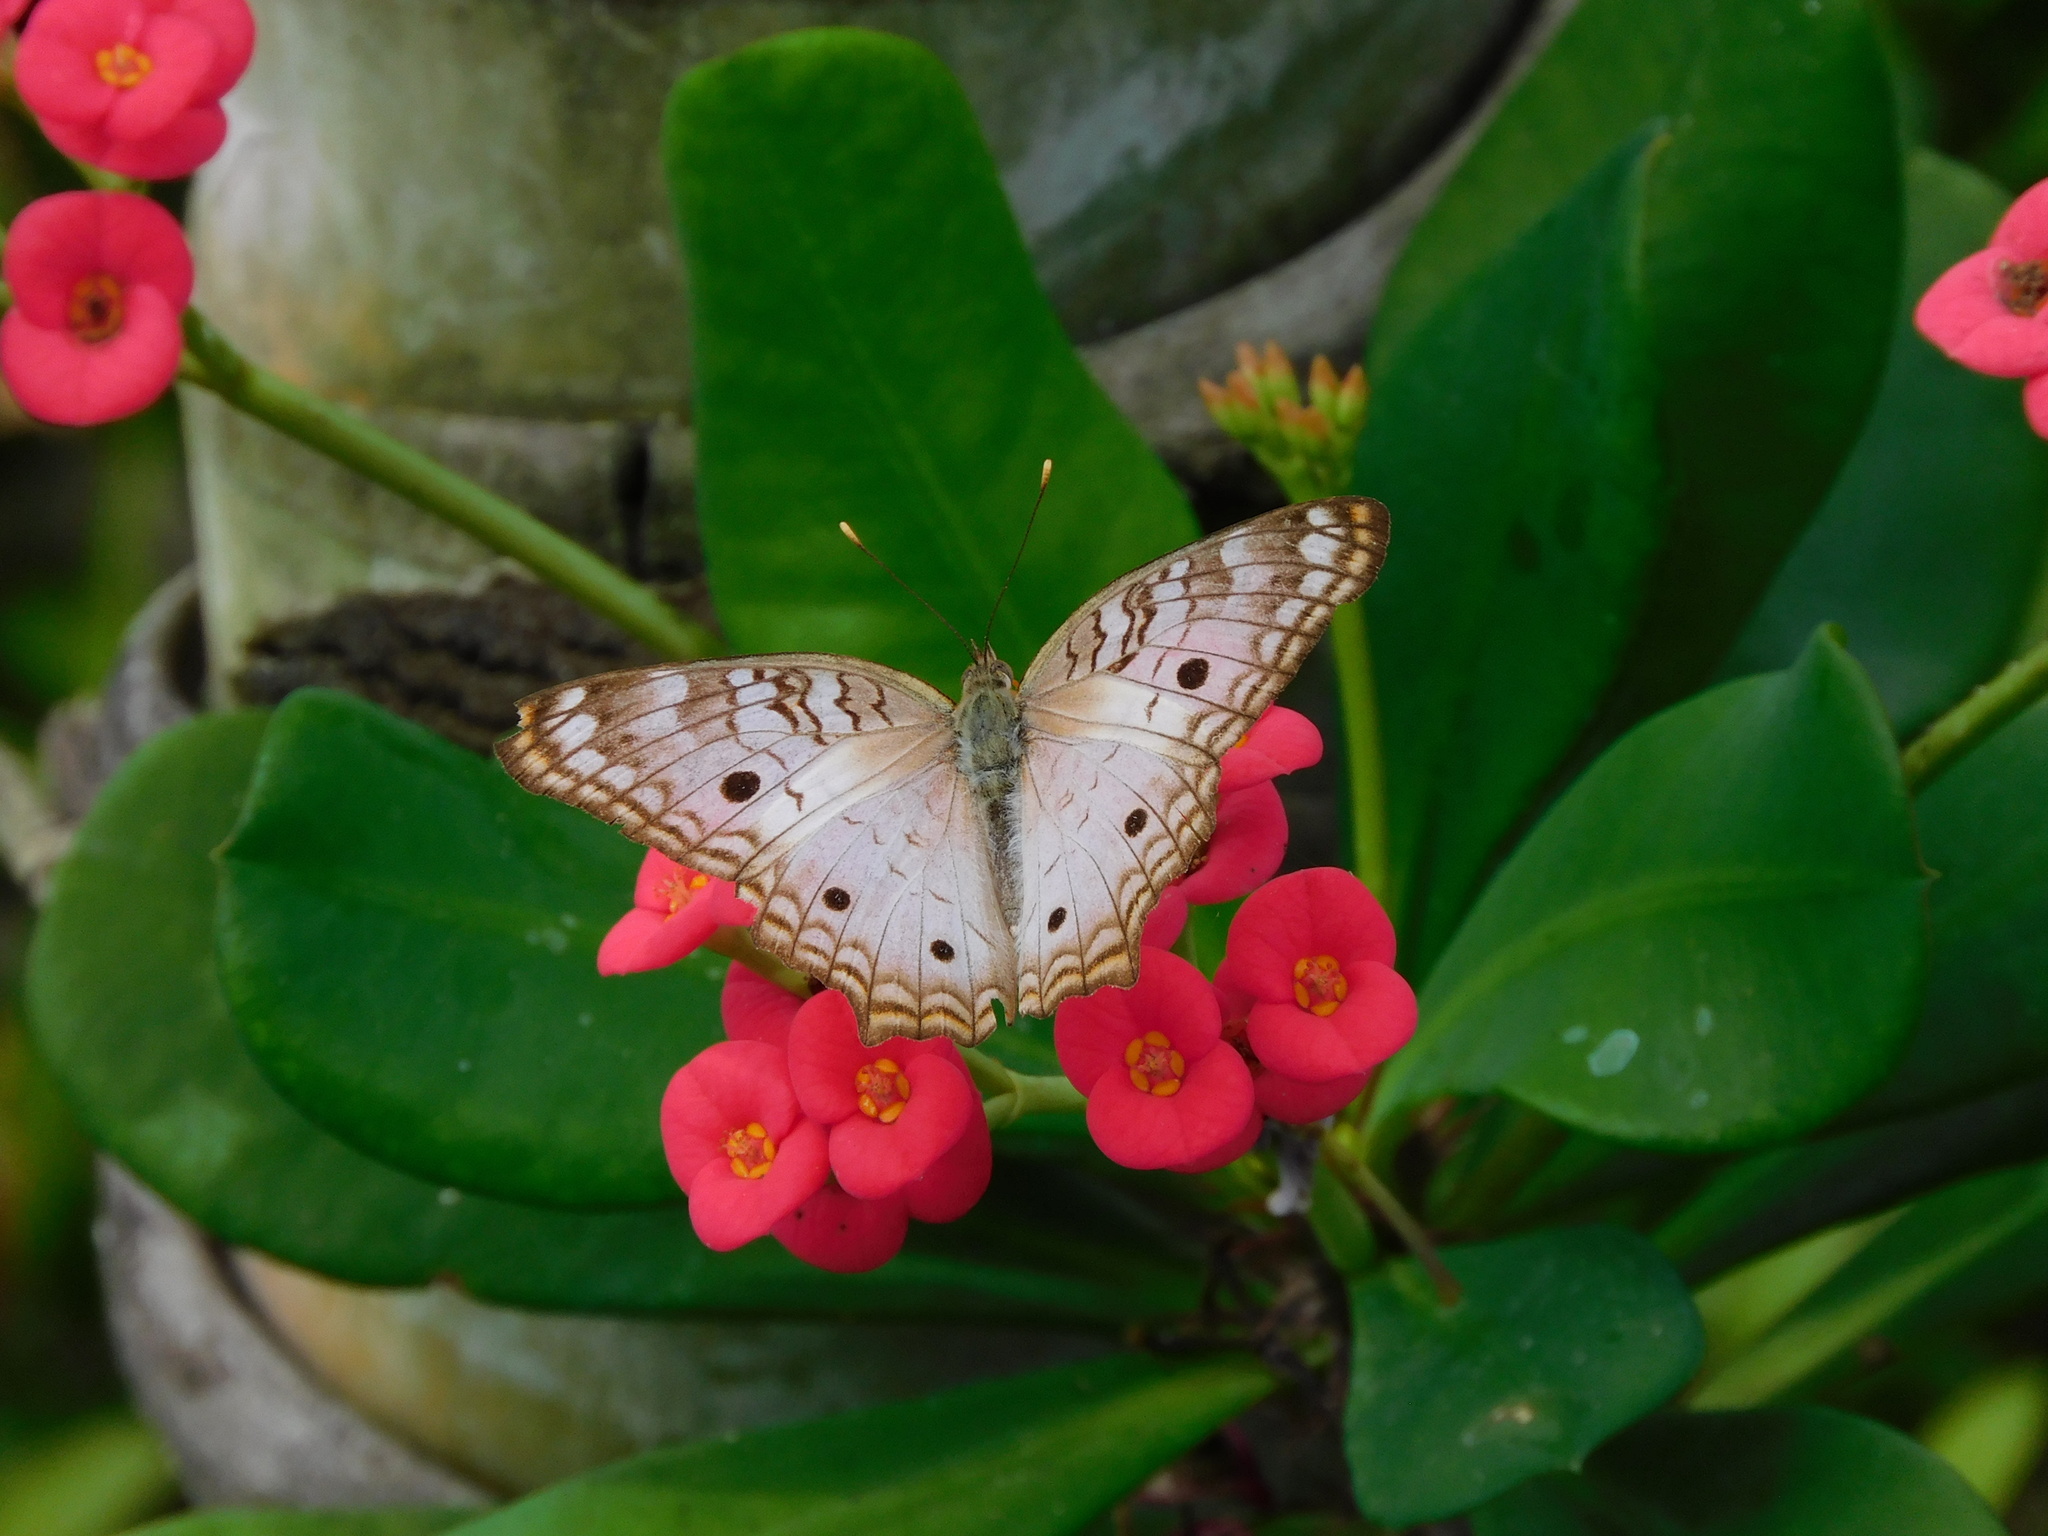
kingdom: Animalia
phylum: Arthropoda
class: Insecta
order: Lepidoptera
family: Nymphalidae
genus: Anartia
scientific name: Anartia jatrophae
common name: White peacock
